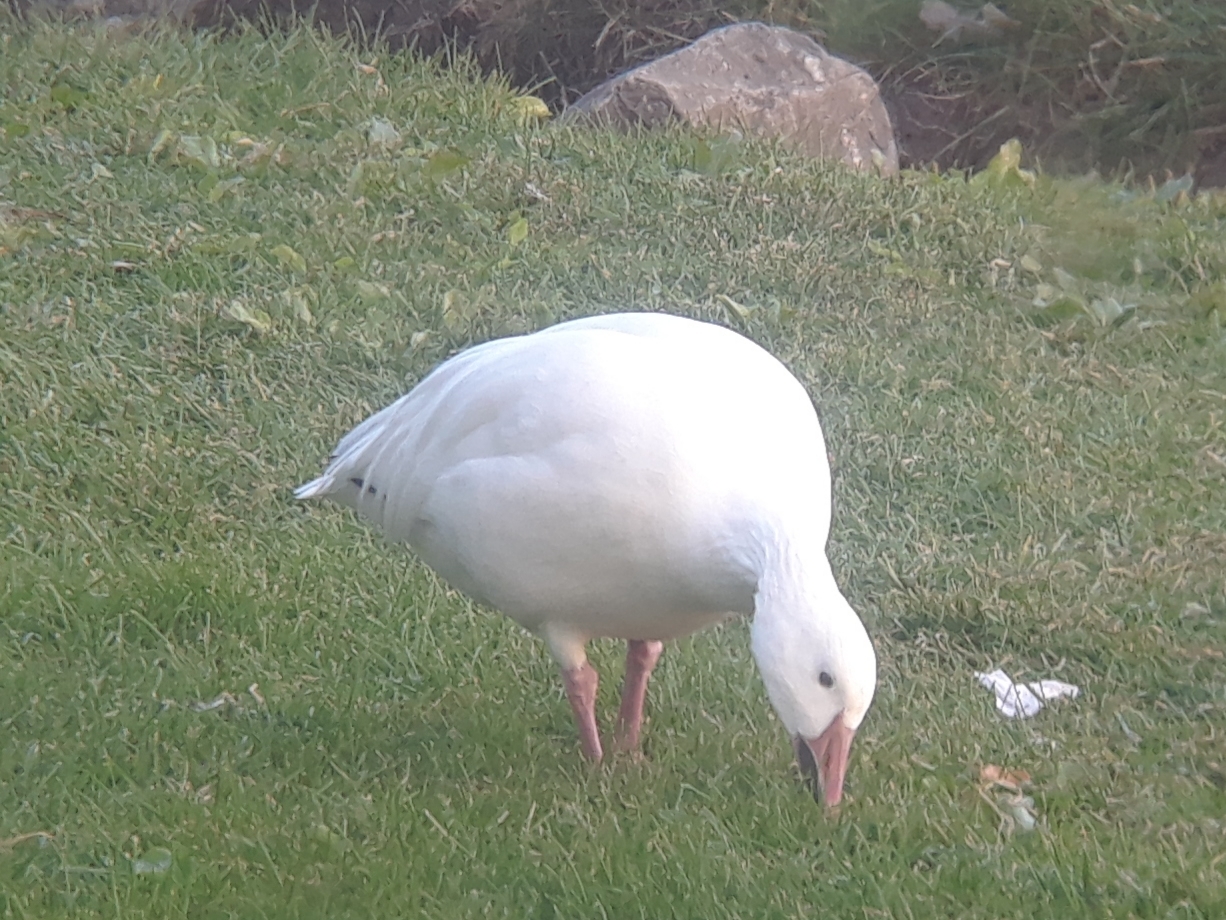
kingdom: Animalia
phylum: Chordata
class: Aves
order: Anseriformes
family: Anatidae
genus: Anser
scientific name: Anser caerulescens
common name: Snow goose
